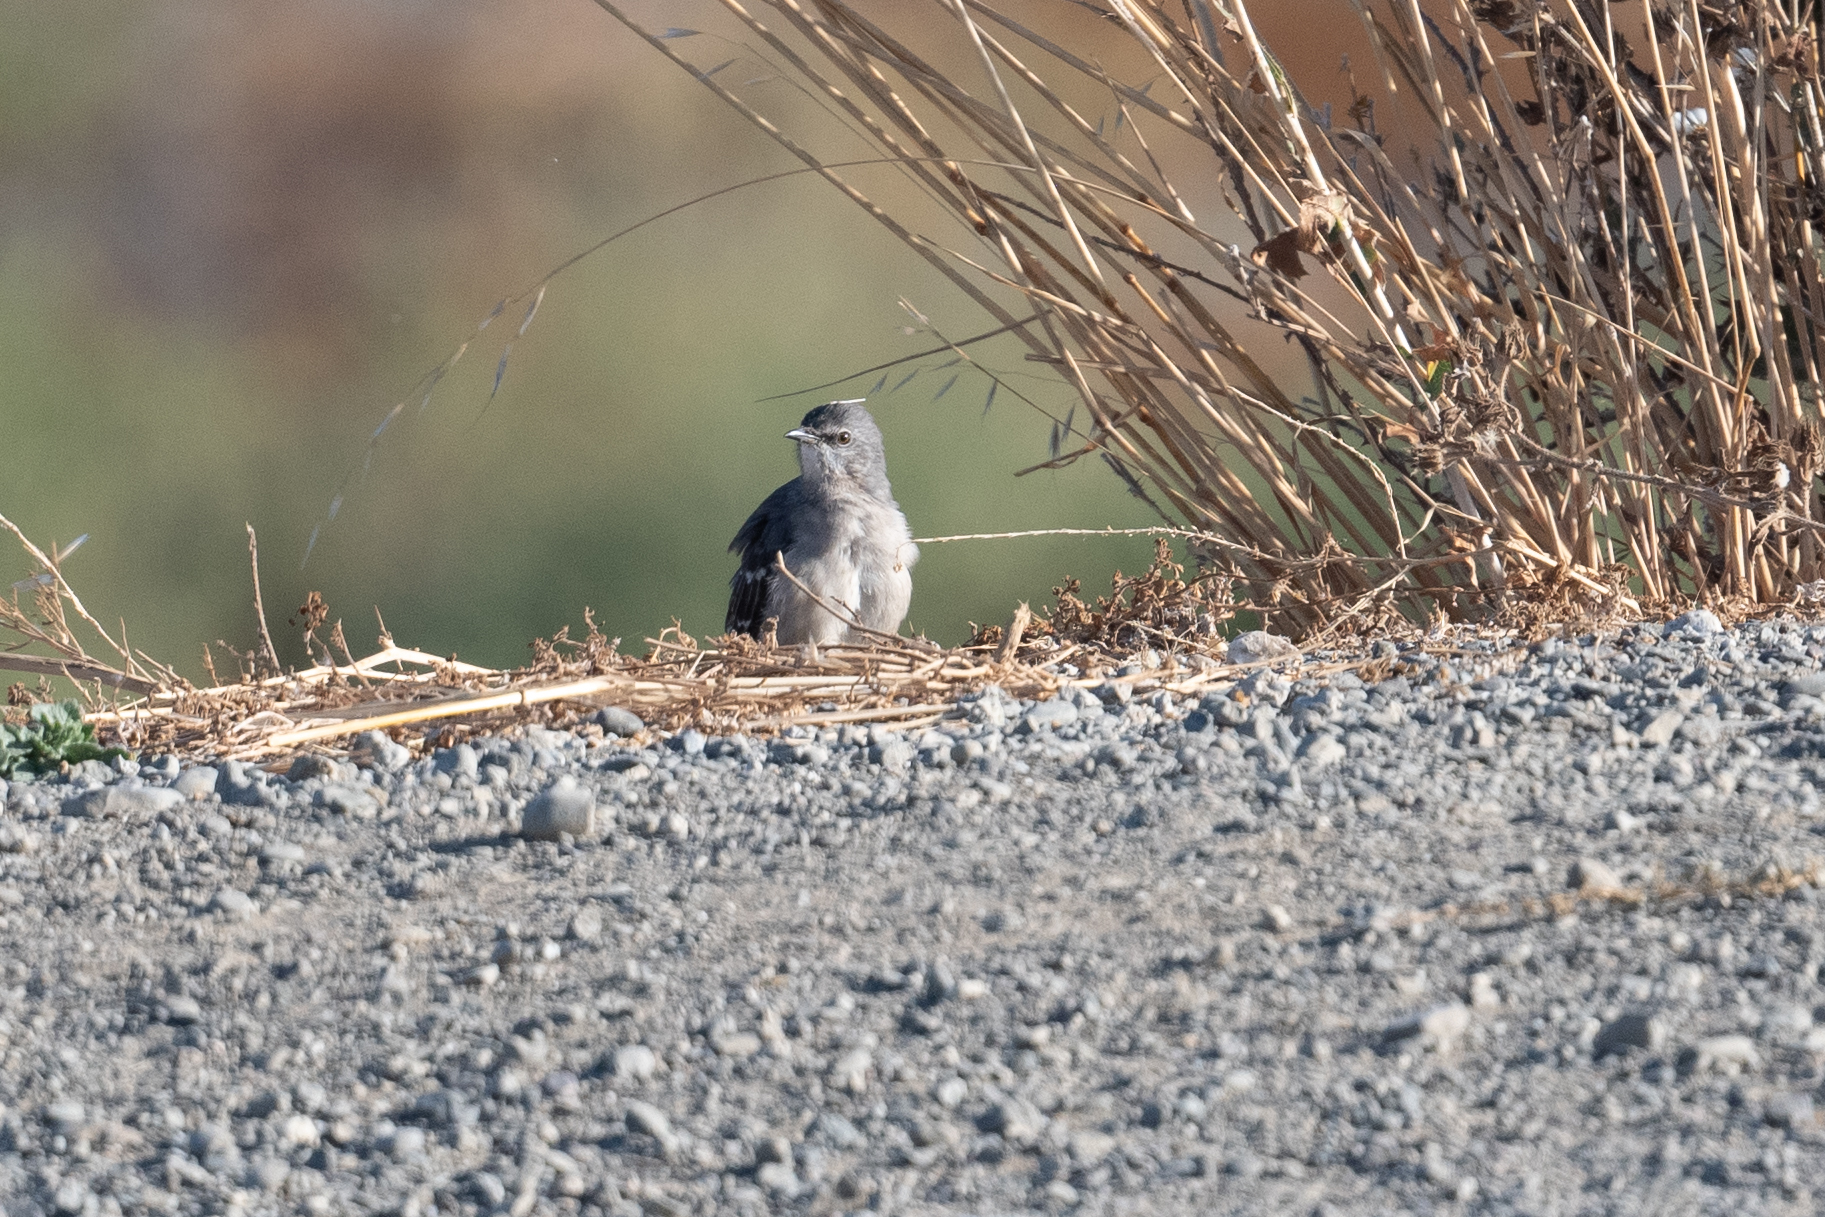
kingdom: Animalia
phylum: Chordata
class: Aves
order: Passeriformes
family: Mimidae
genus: Mimus
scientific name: Mimus polyglottos
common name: Northern mockingbird
